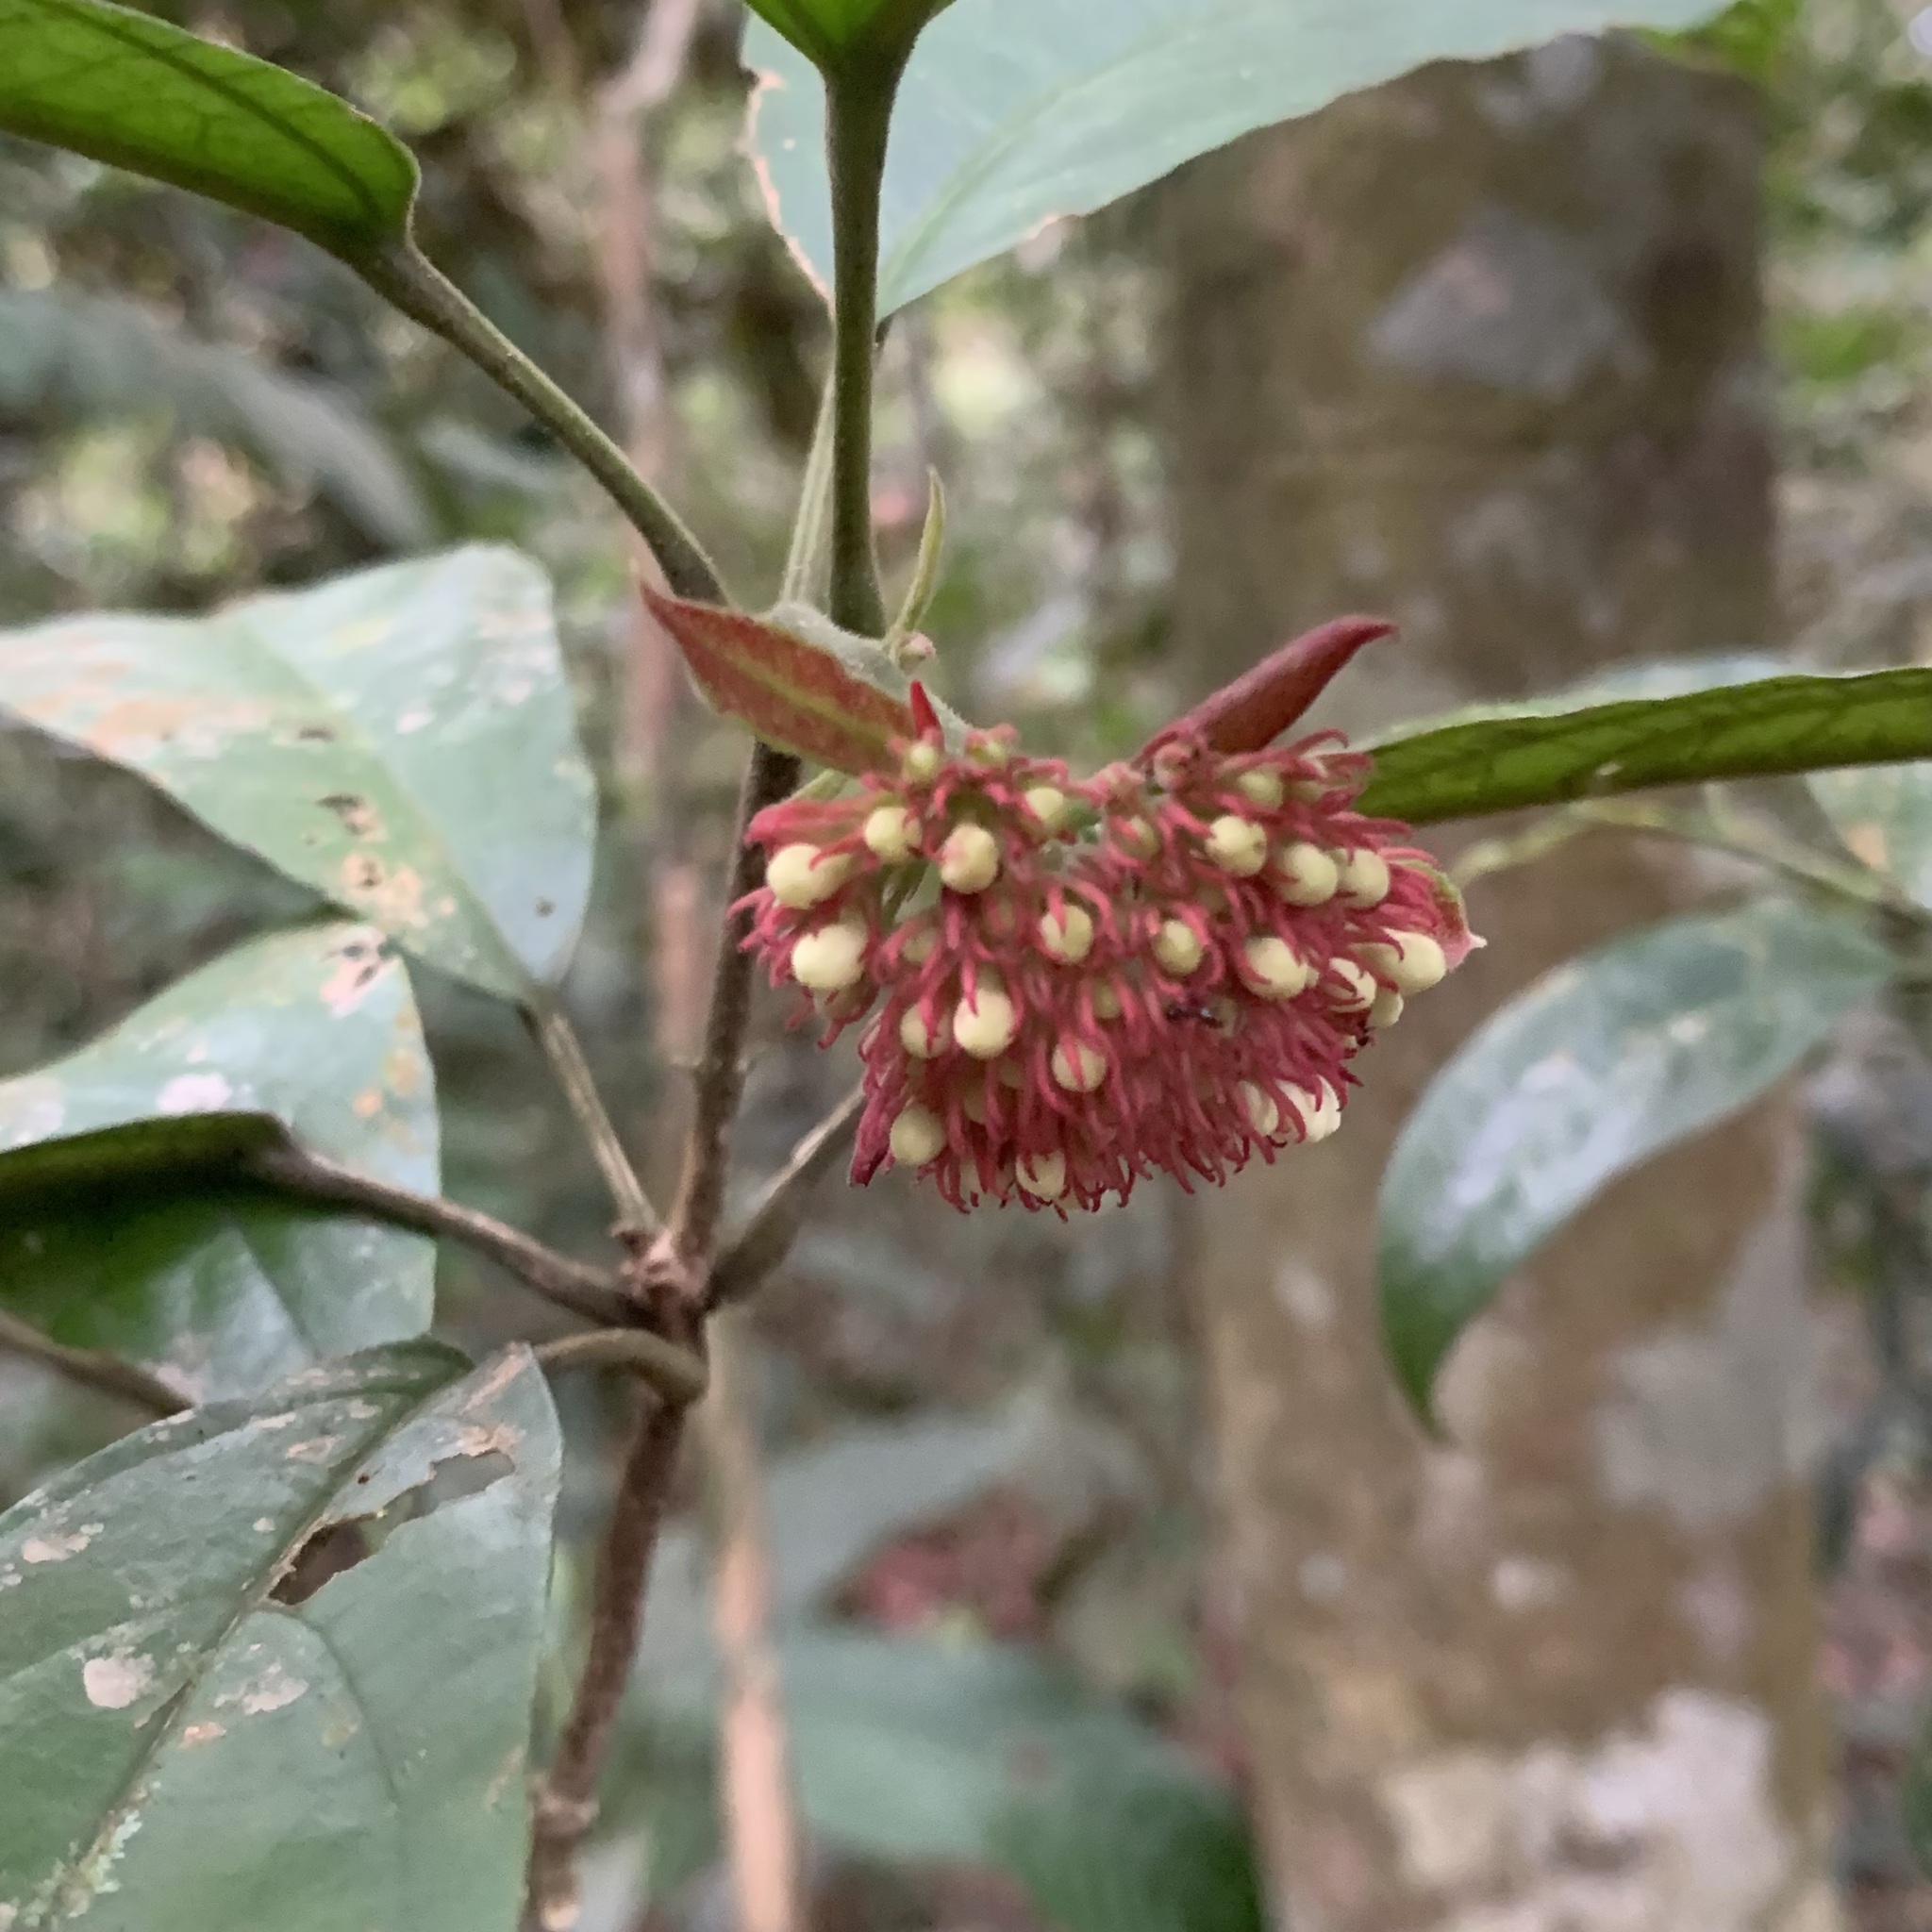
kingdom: Plantae
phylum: Tracheophyta
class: Magnoliopsida
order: Lamiales
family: Lamiaceae
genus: Clerodendrum
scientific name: Clerodendrum deflexum
